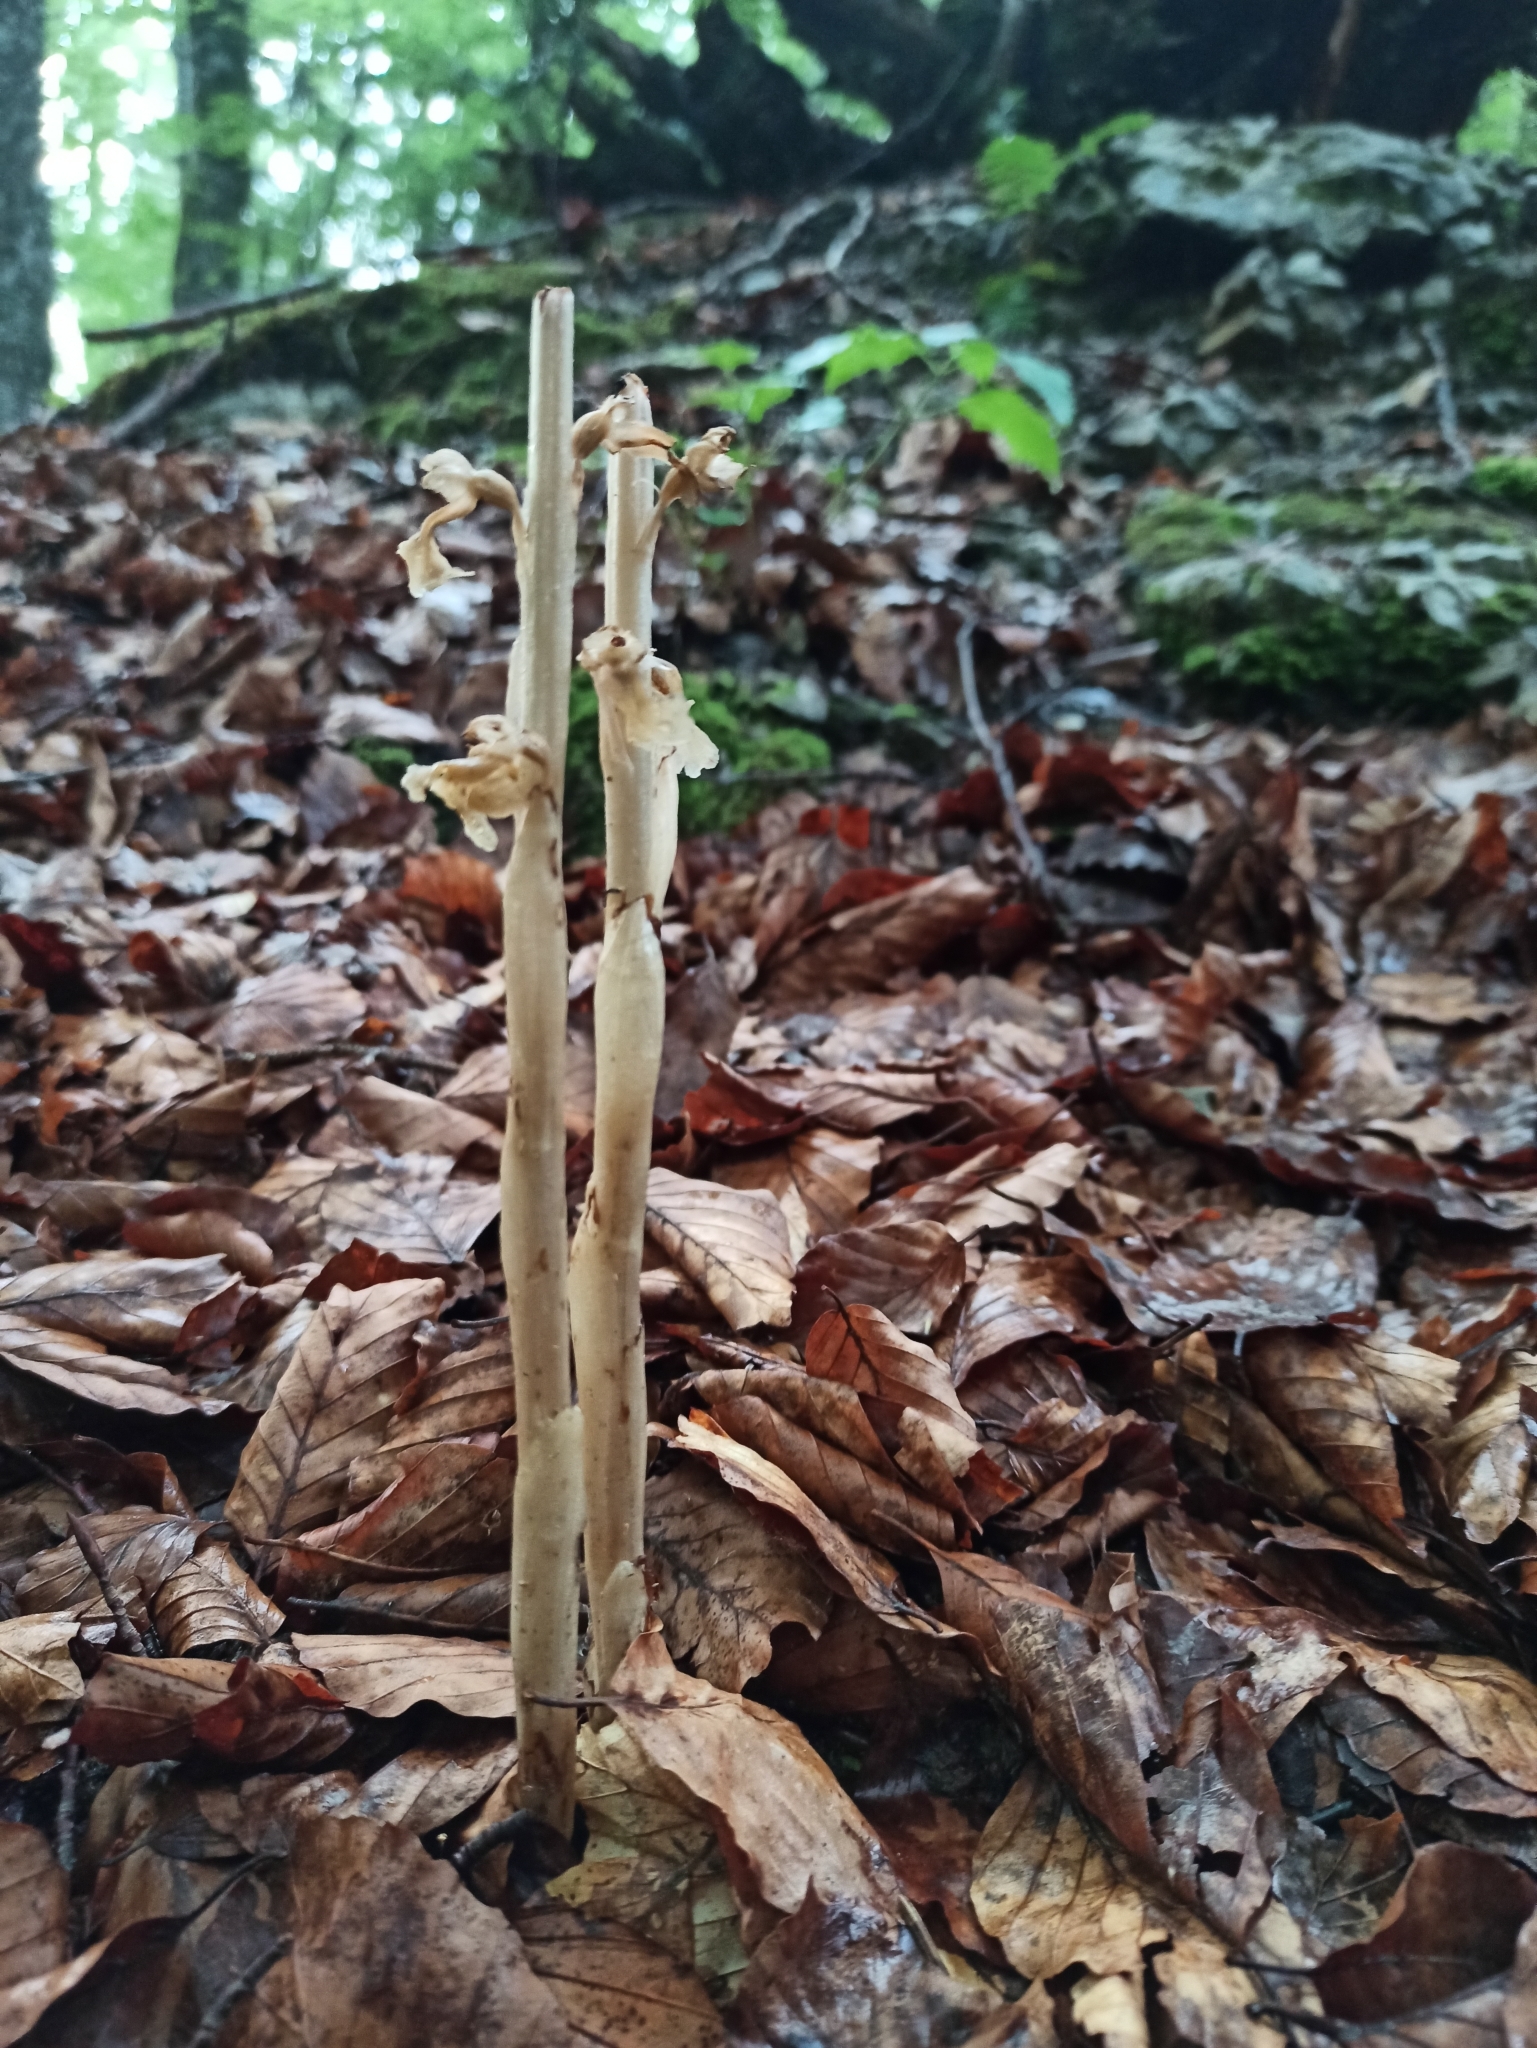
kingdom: Plantae
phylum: Tracheophyta
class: Liliopsida
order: Asparagales
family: Orchidaceae
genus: Neottia
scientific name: Neottia nidus-avis
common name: Bird's-nest orchid
